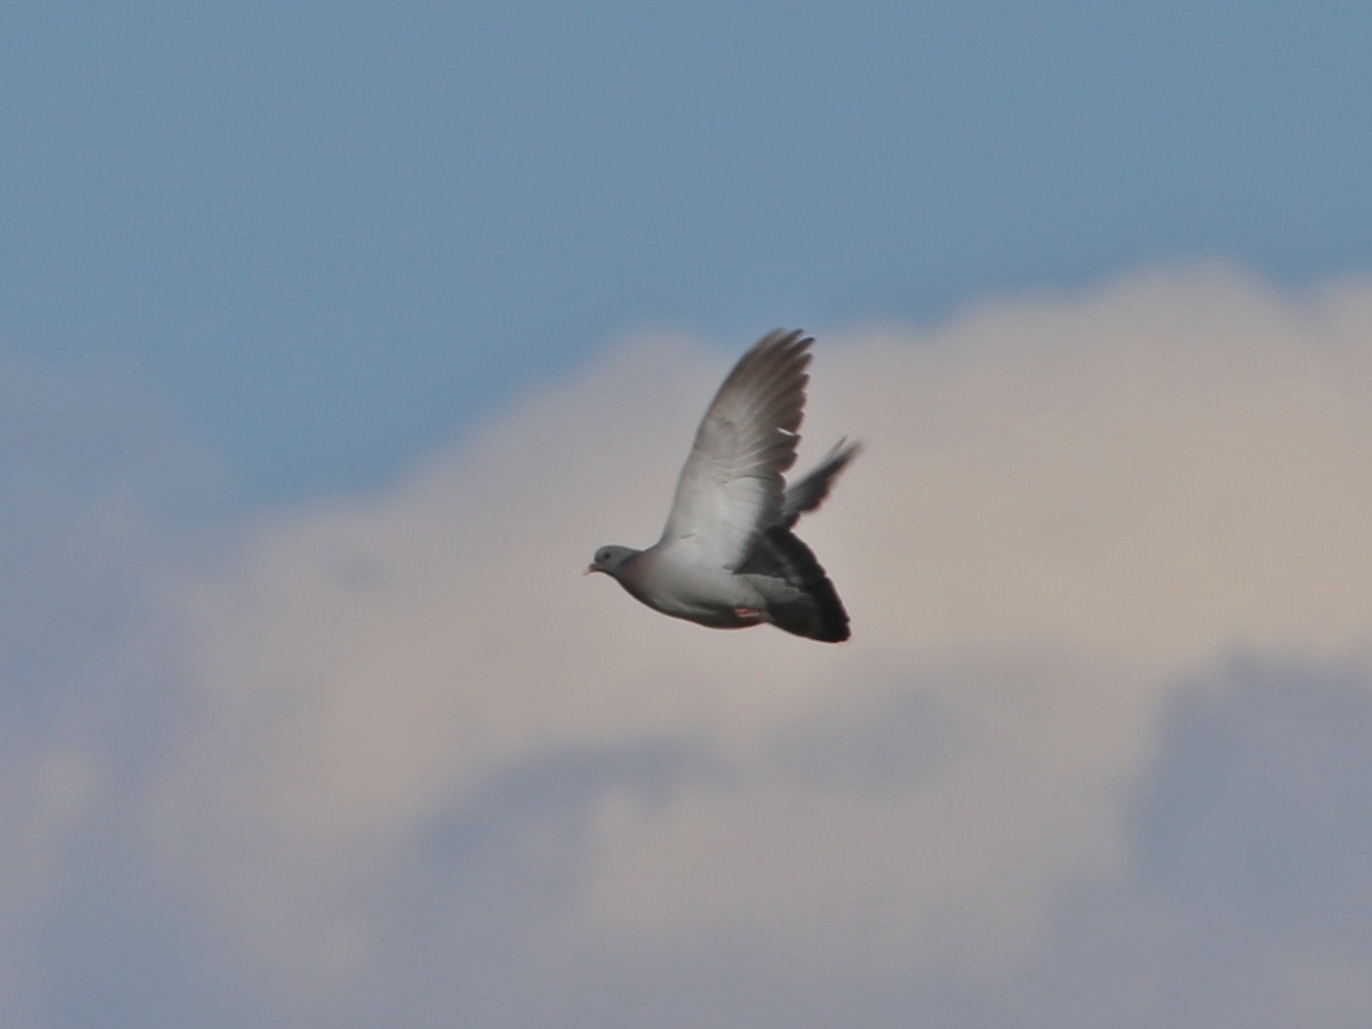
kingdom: Animalia
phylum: Chordata
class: Aves
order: Columbiformes
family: Columbidae
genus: Columba
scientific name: Columba oenas
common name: Stock dove
